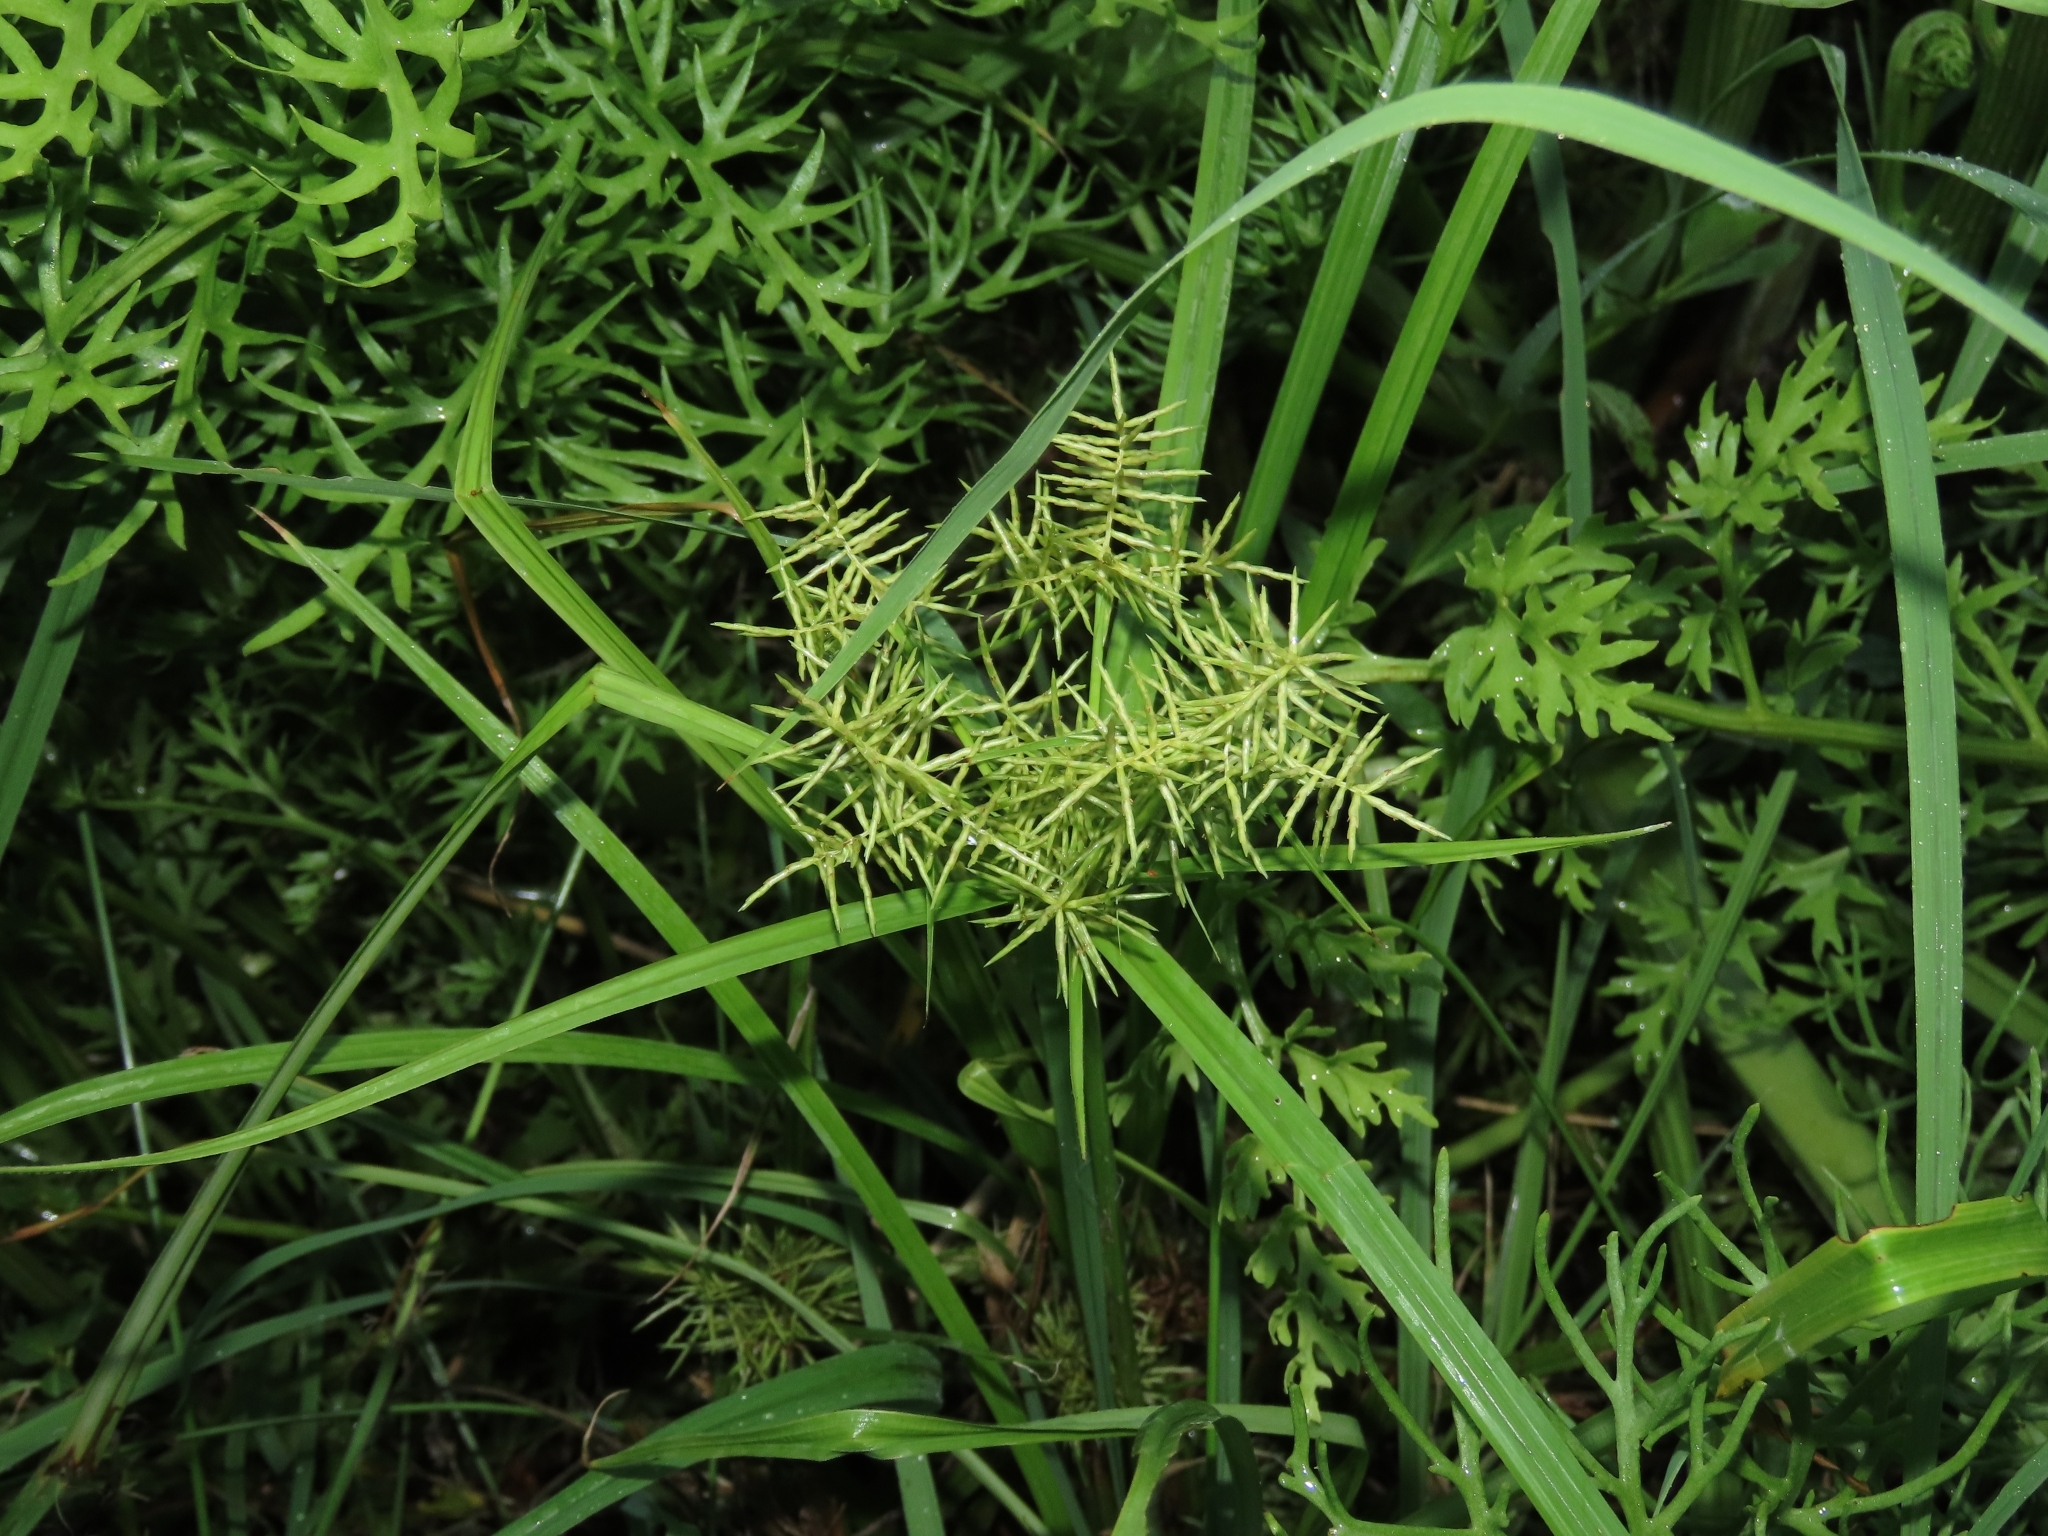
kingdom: Plantae
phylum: Tracheophyta
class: Liliopsida
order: Poales
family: Cyperaceae
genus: Cyperus
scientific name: Cyperus odoratus
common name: Fragrant flatsedge
